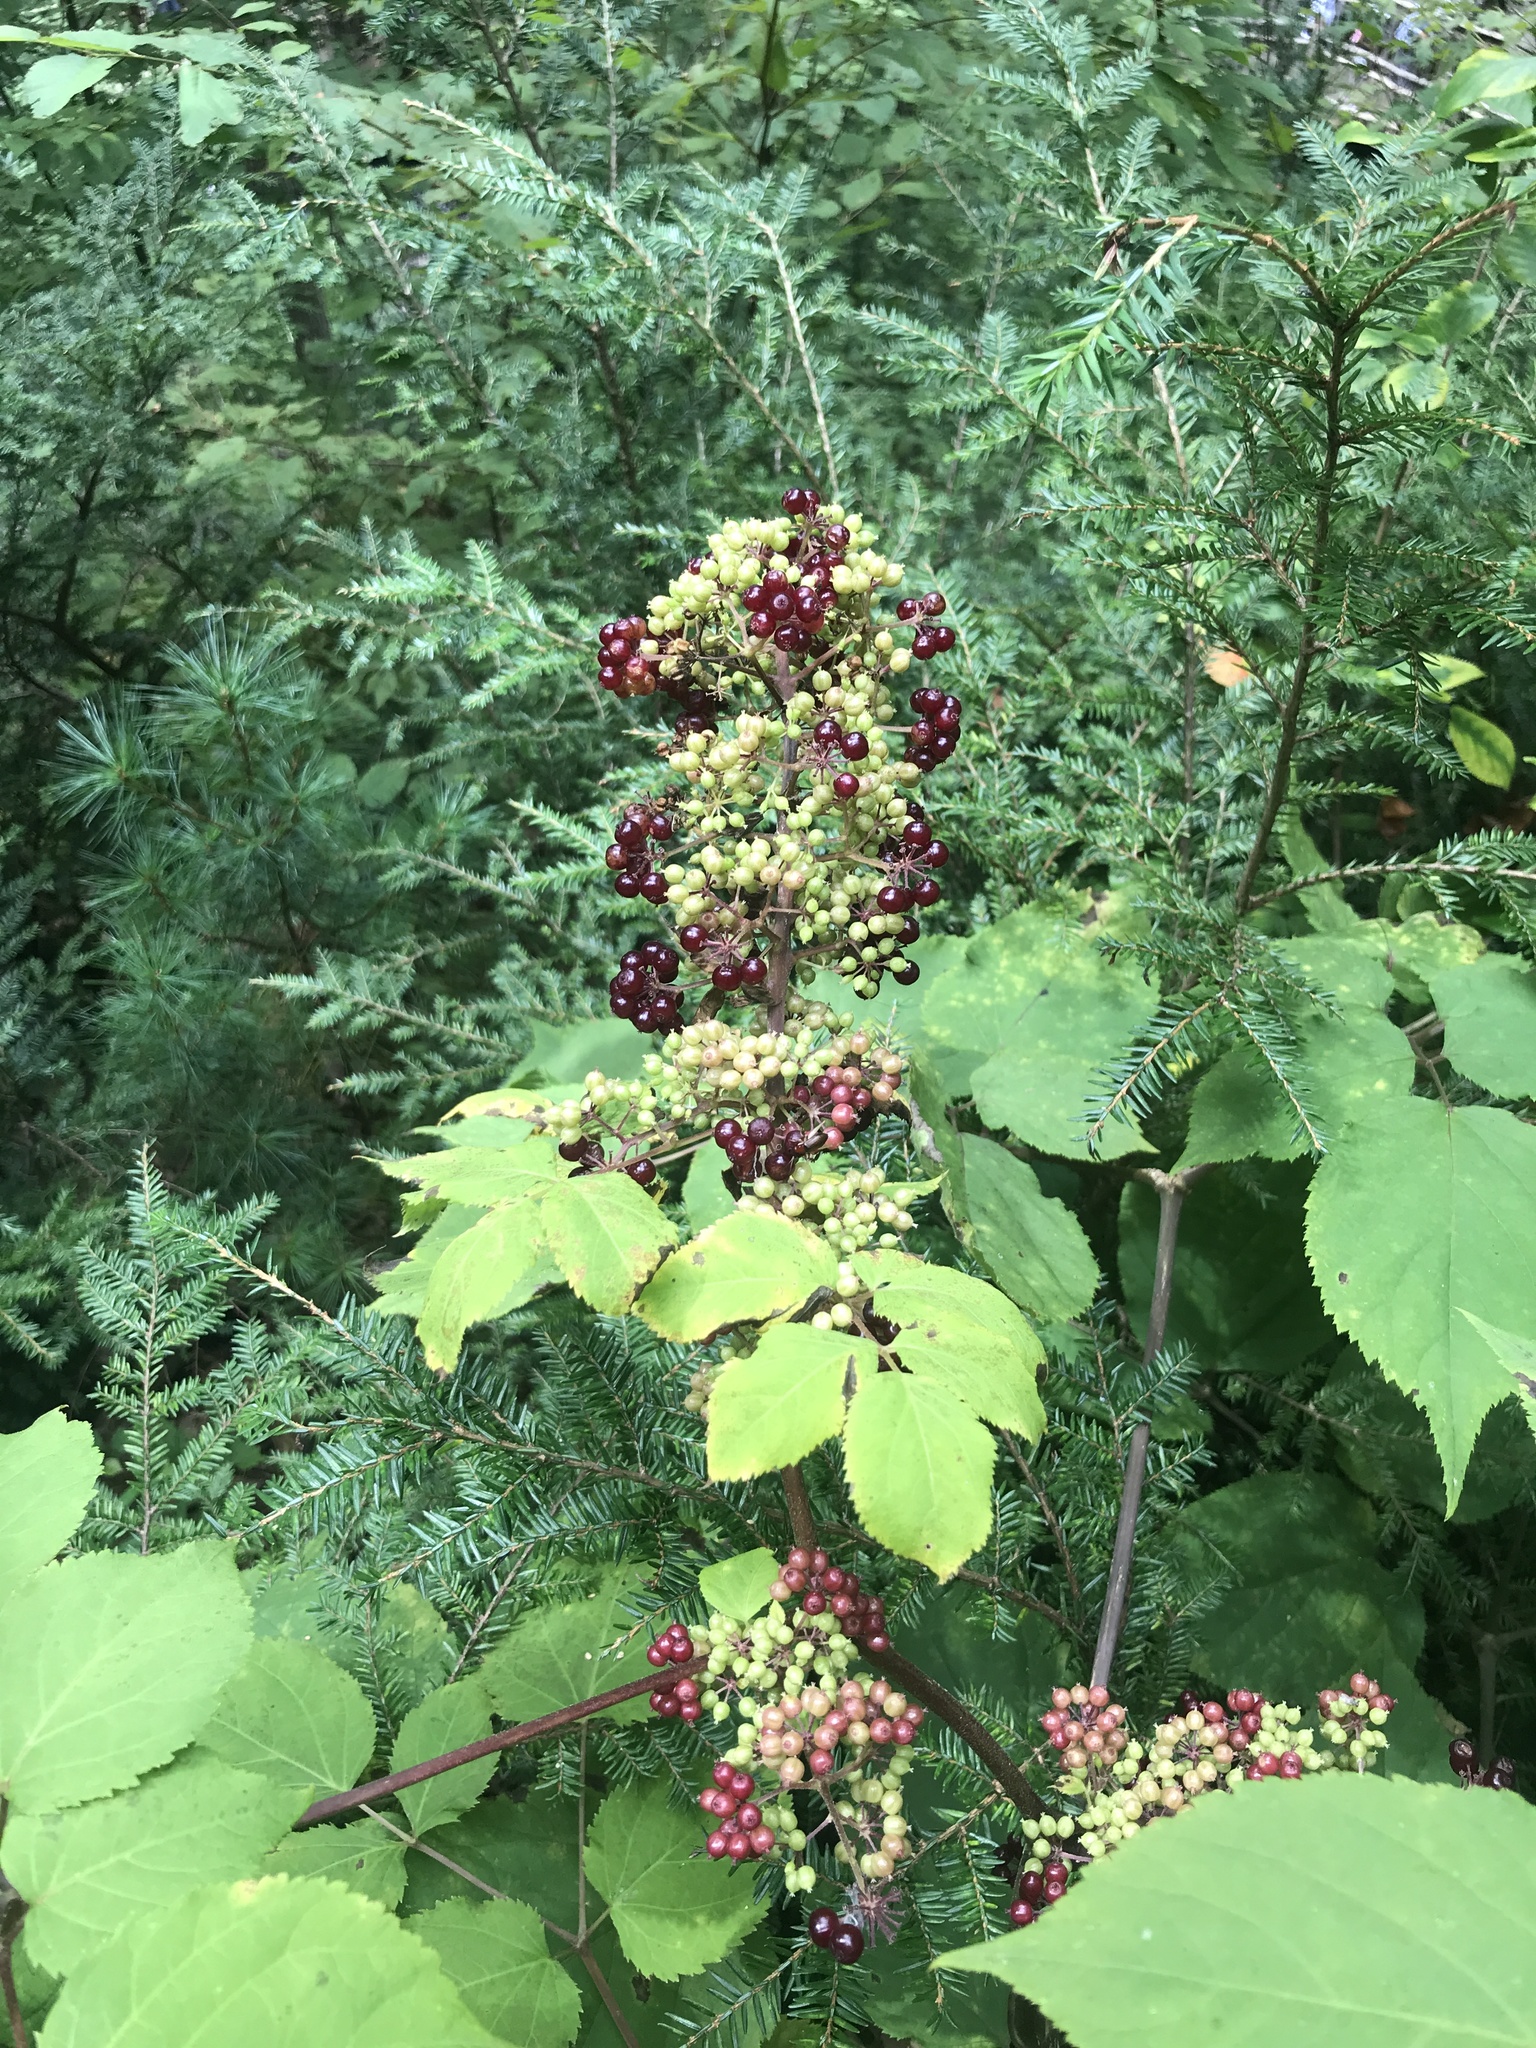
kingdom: Plantae
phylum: Tracheophyta
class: Magnoliopsida
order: Apiales
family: Araliaceae
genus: Aralia
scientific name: Aralia racemosa
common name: American-spikenard
